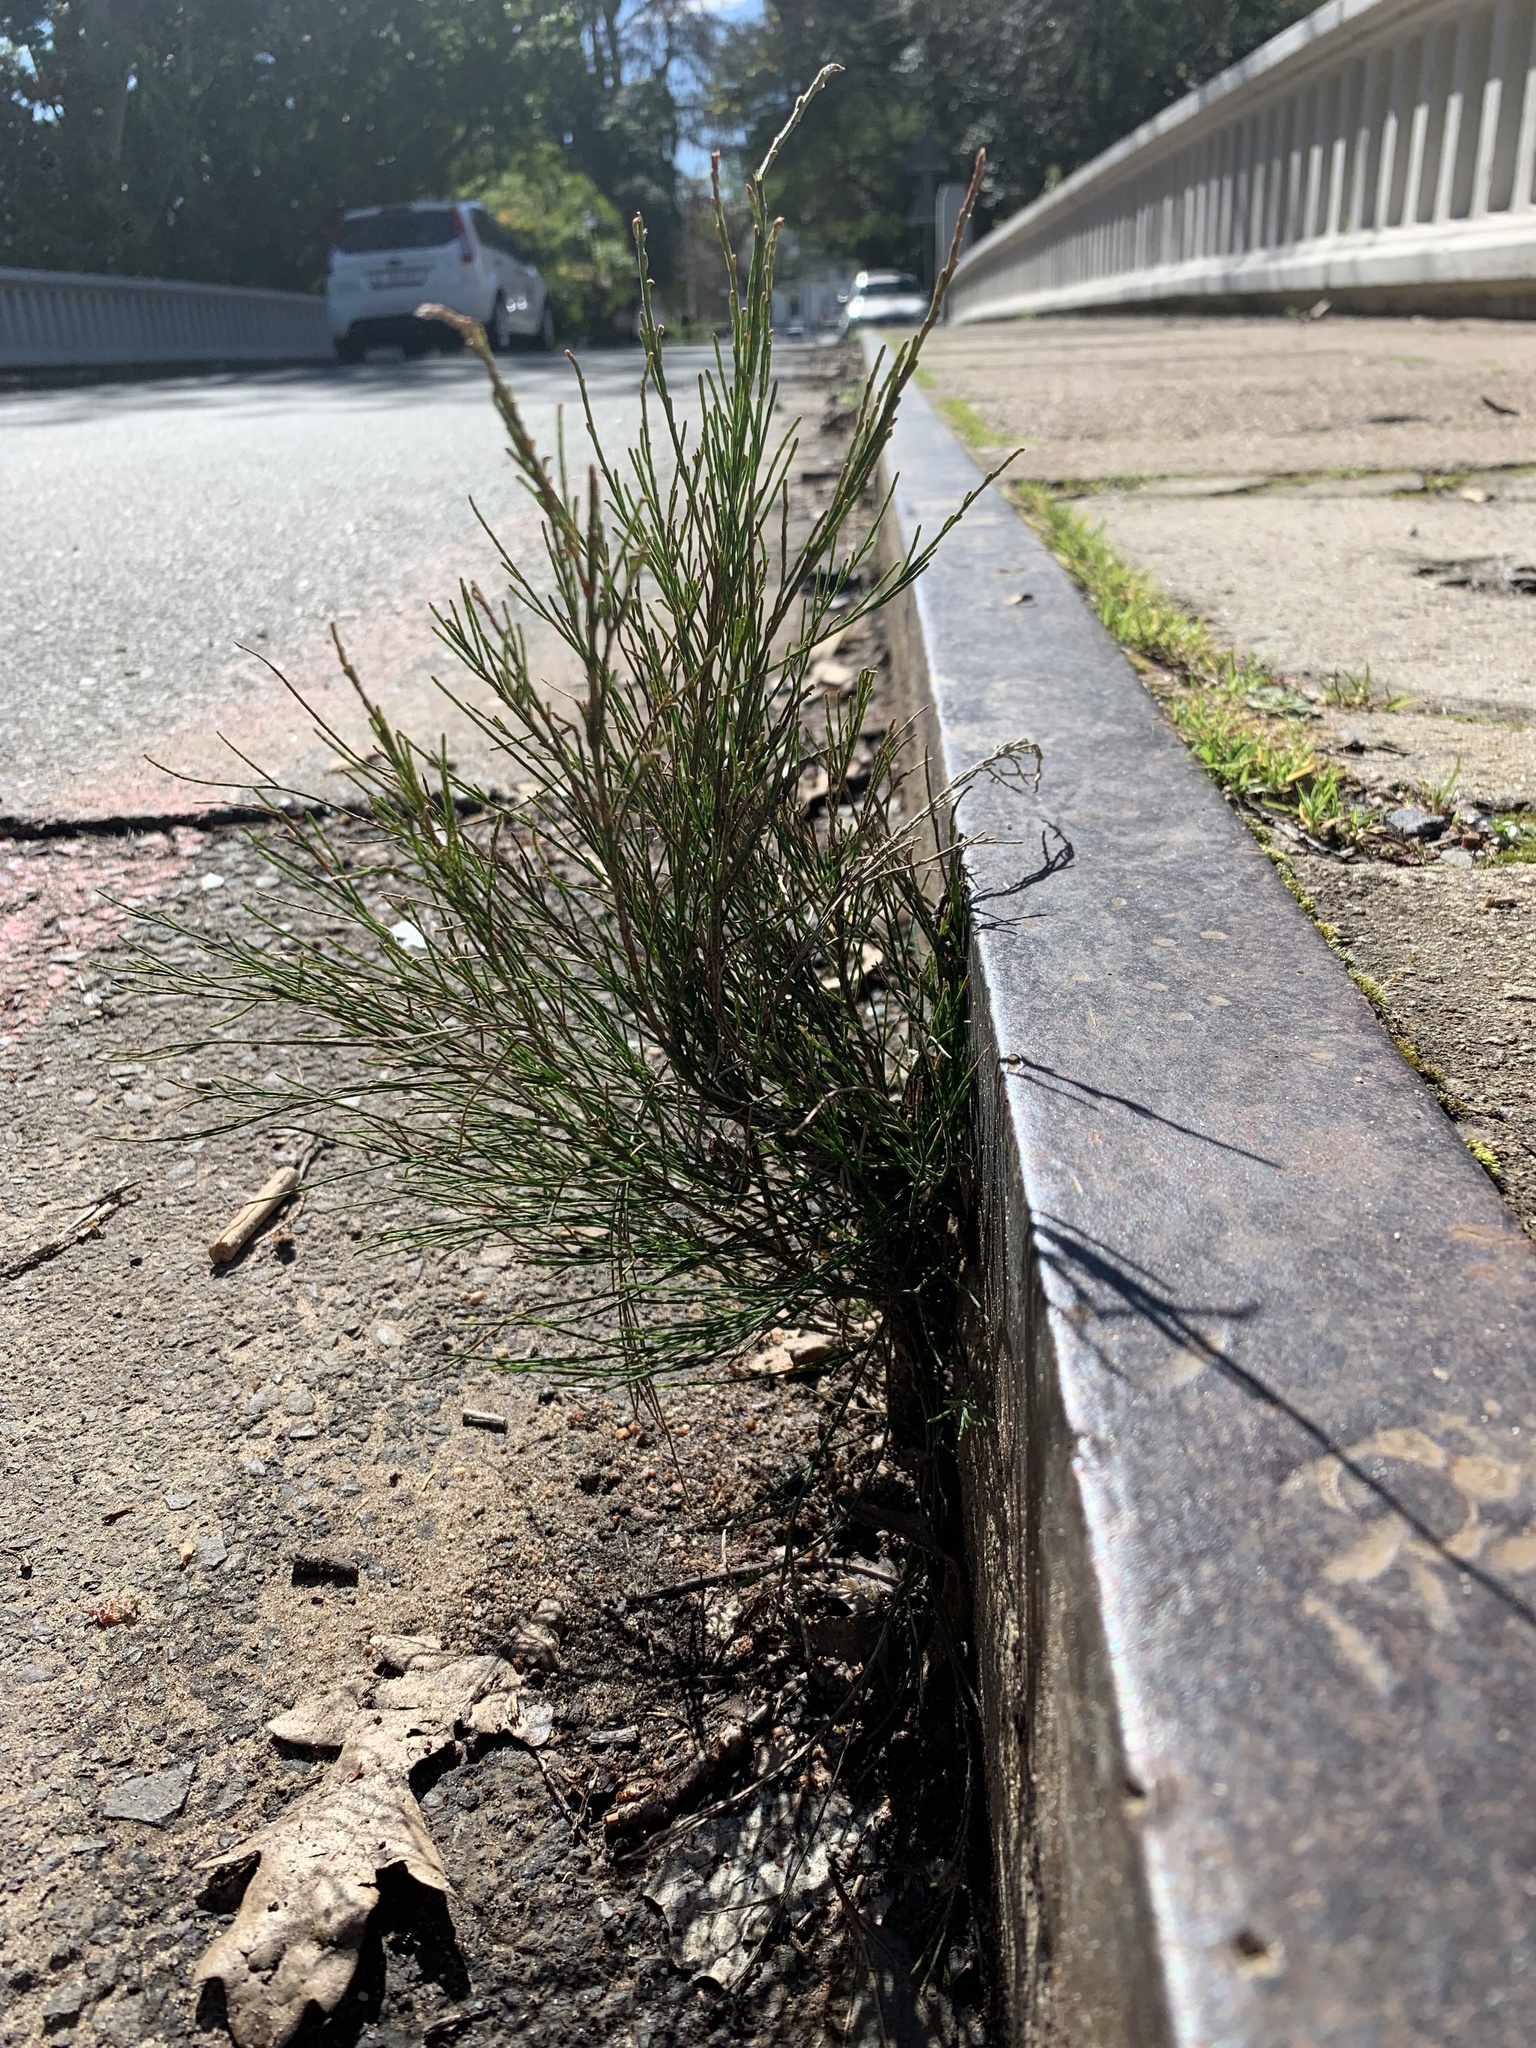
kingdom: Plantae
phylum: Tracheophyta
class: Magnoliopsida
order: Fagales
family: Casuarinaceae
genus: Casuarina
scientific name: Casuarina cunninghamiana
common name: River sheoak
